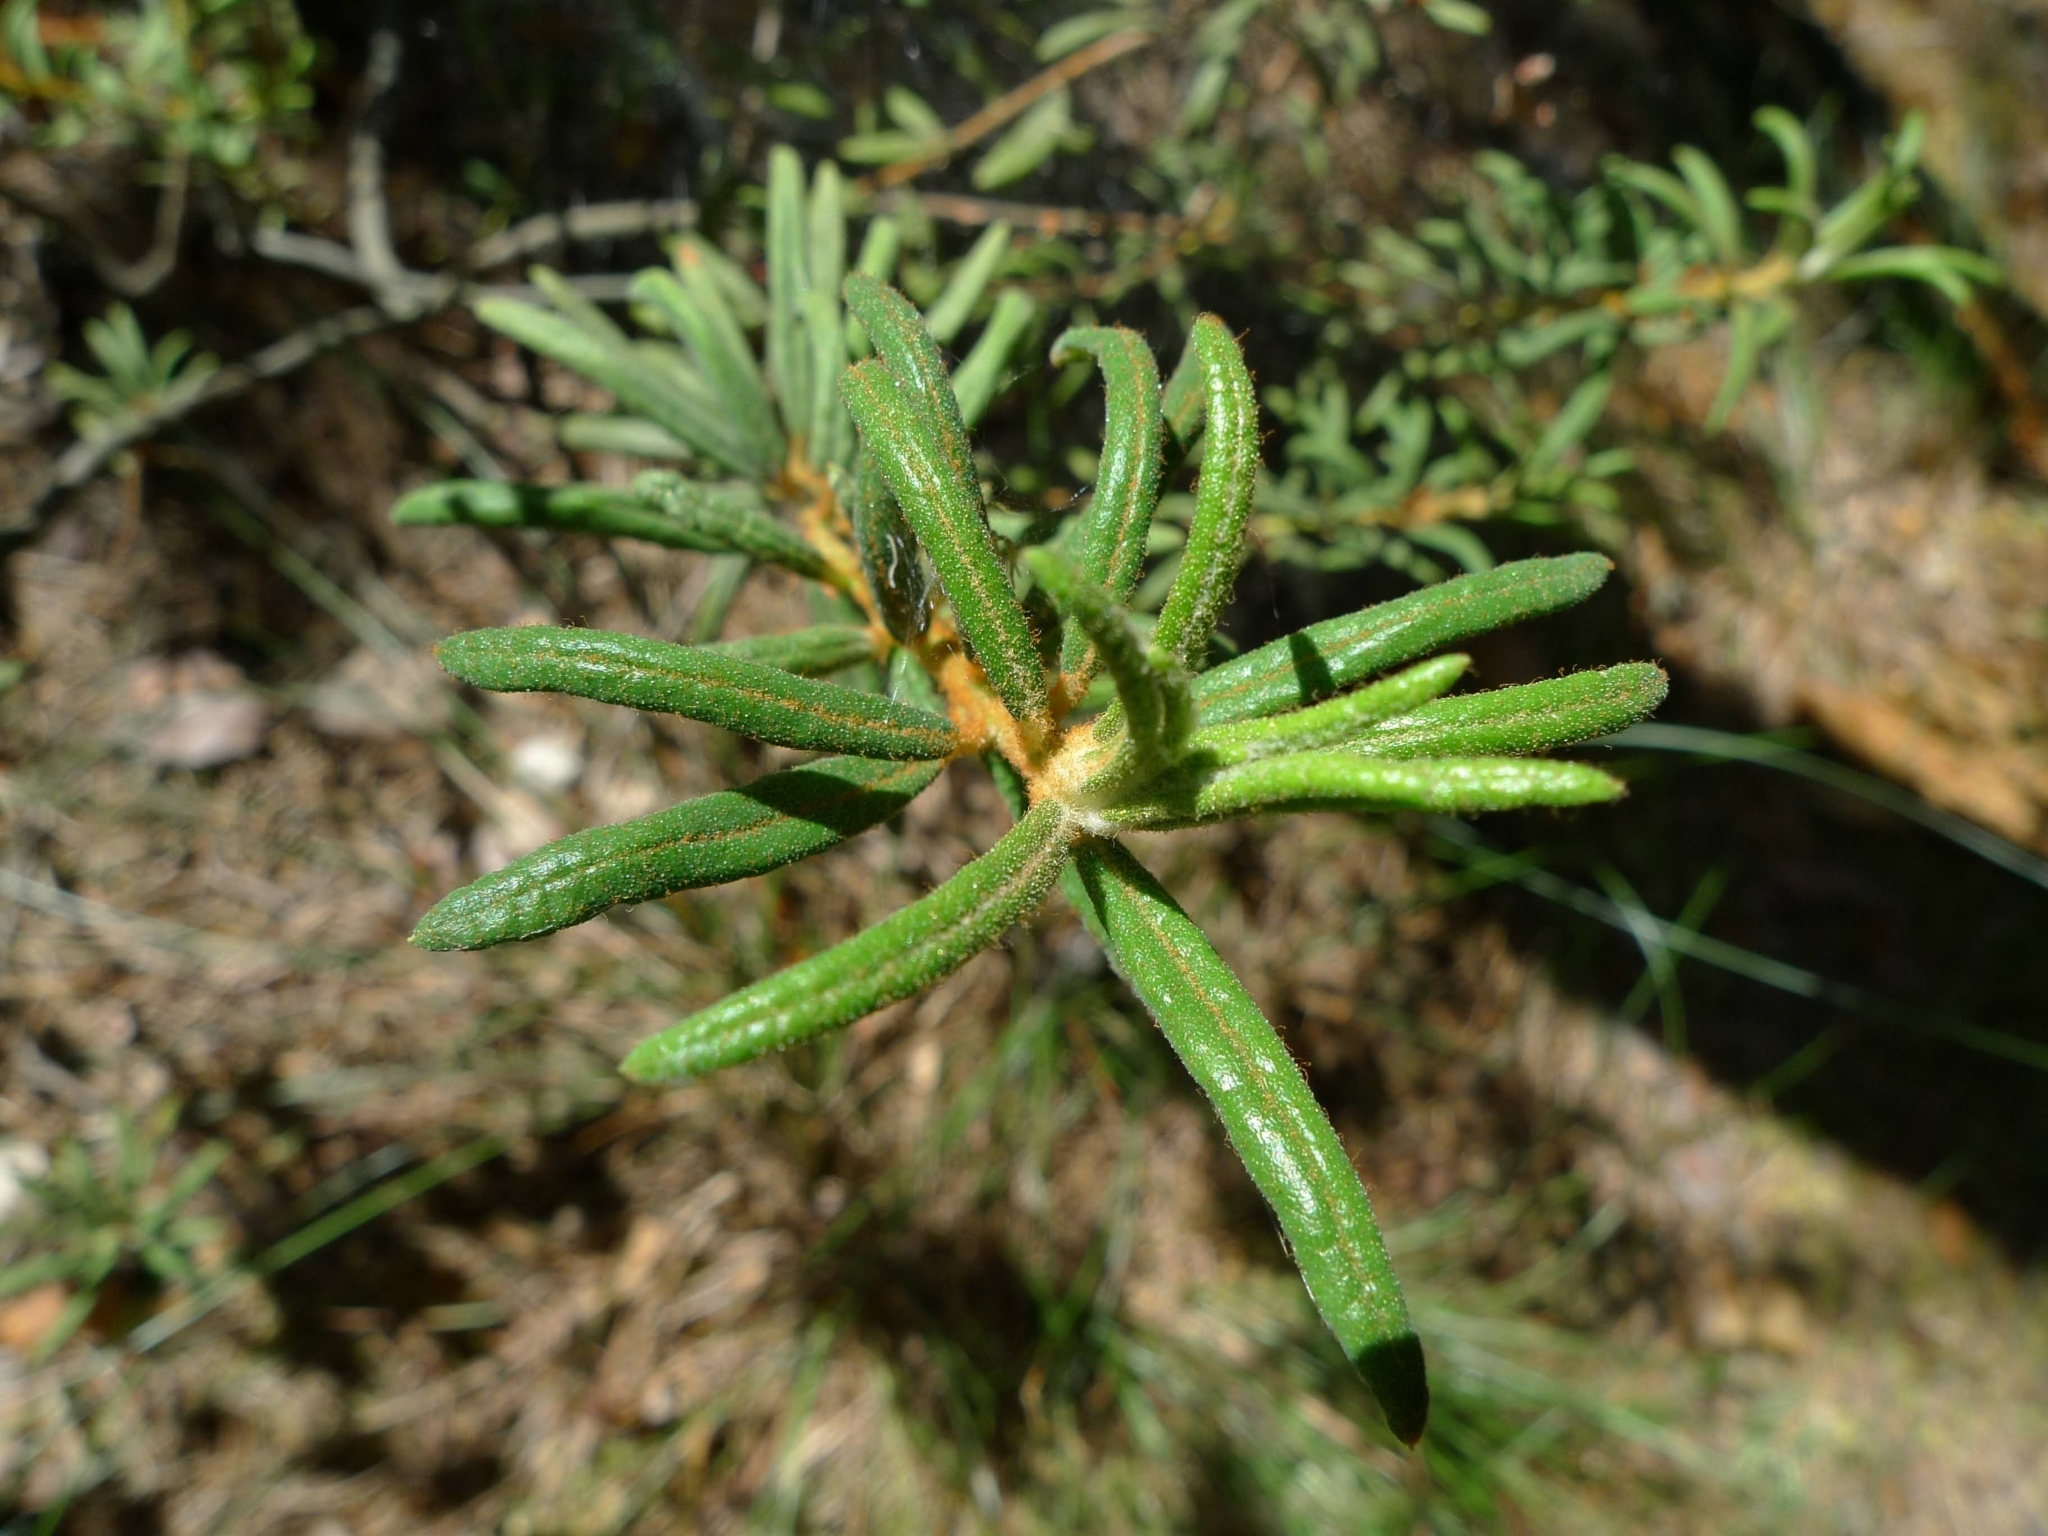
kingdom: Plantae
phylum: Tracheophyta
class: Magnoliopsida
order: Ericales
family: Ericaceae
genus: Rhododendron
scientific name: Rhododendron tomentosum
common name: Marsh labrador tea
